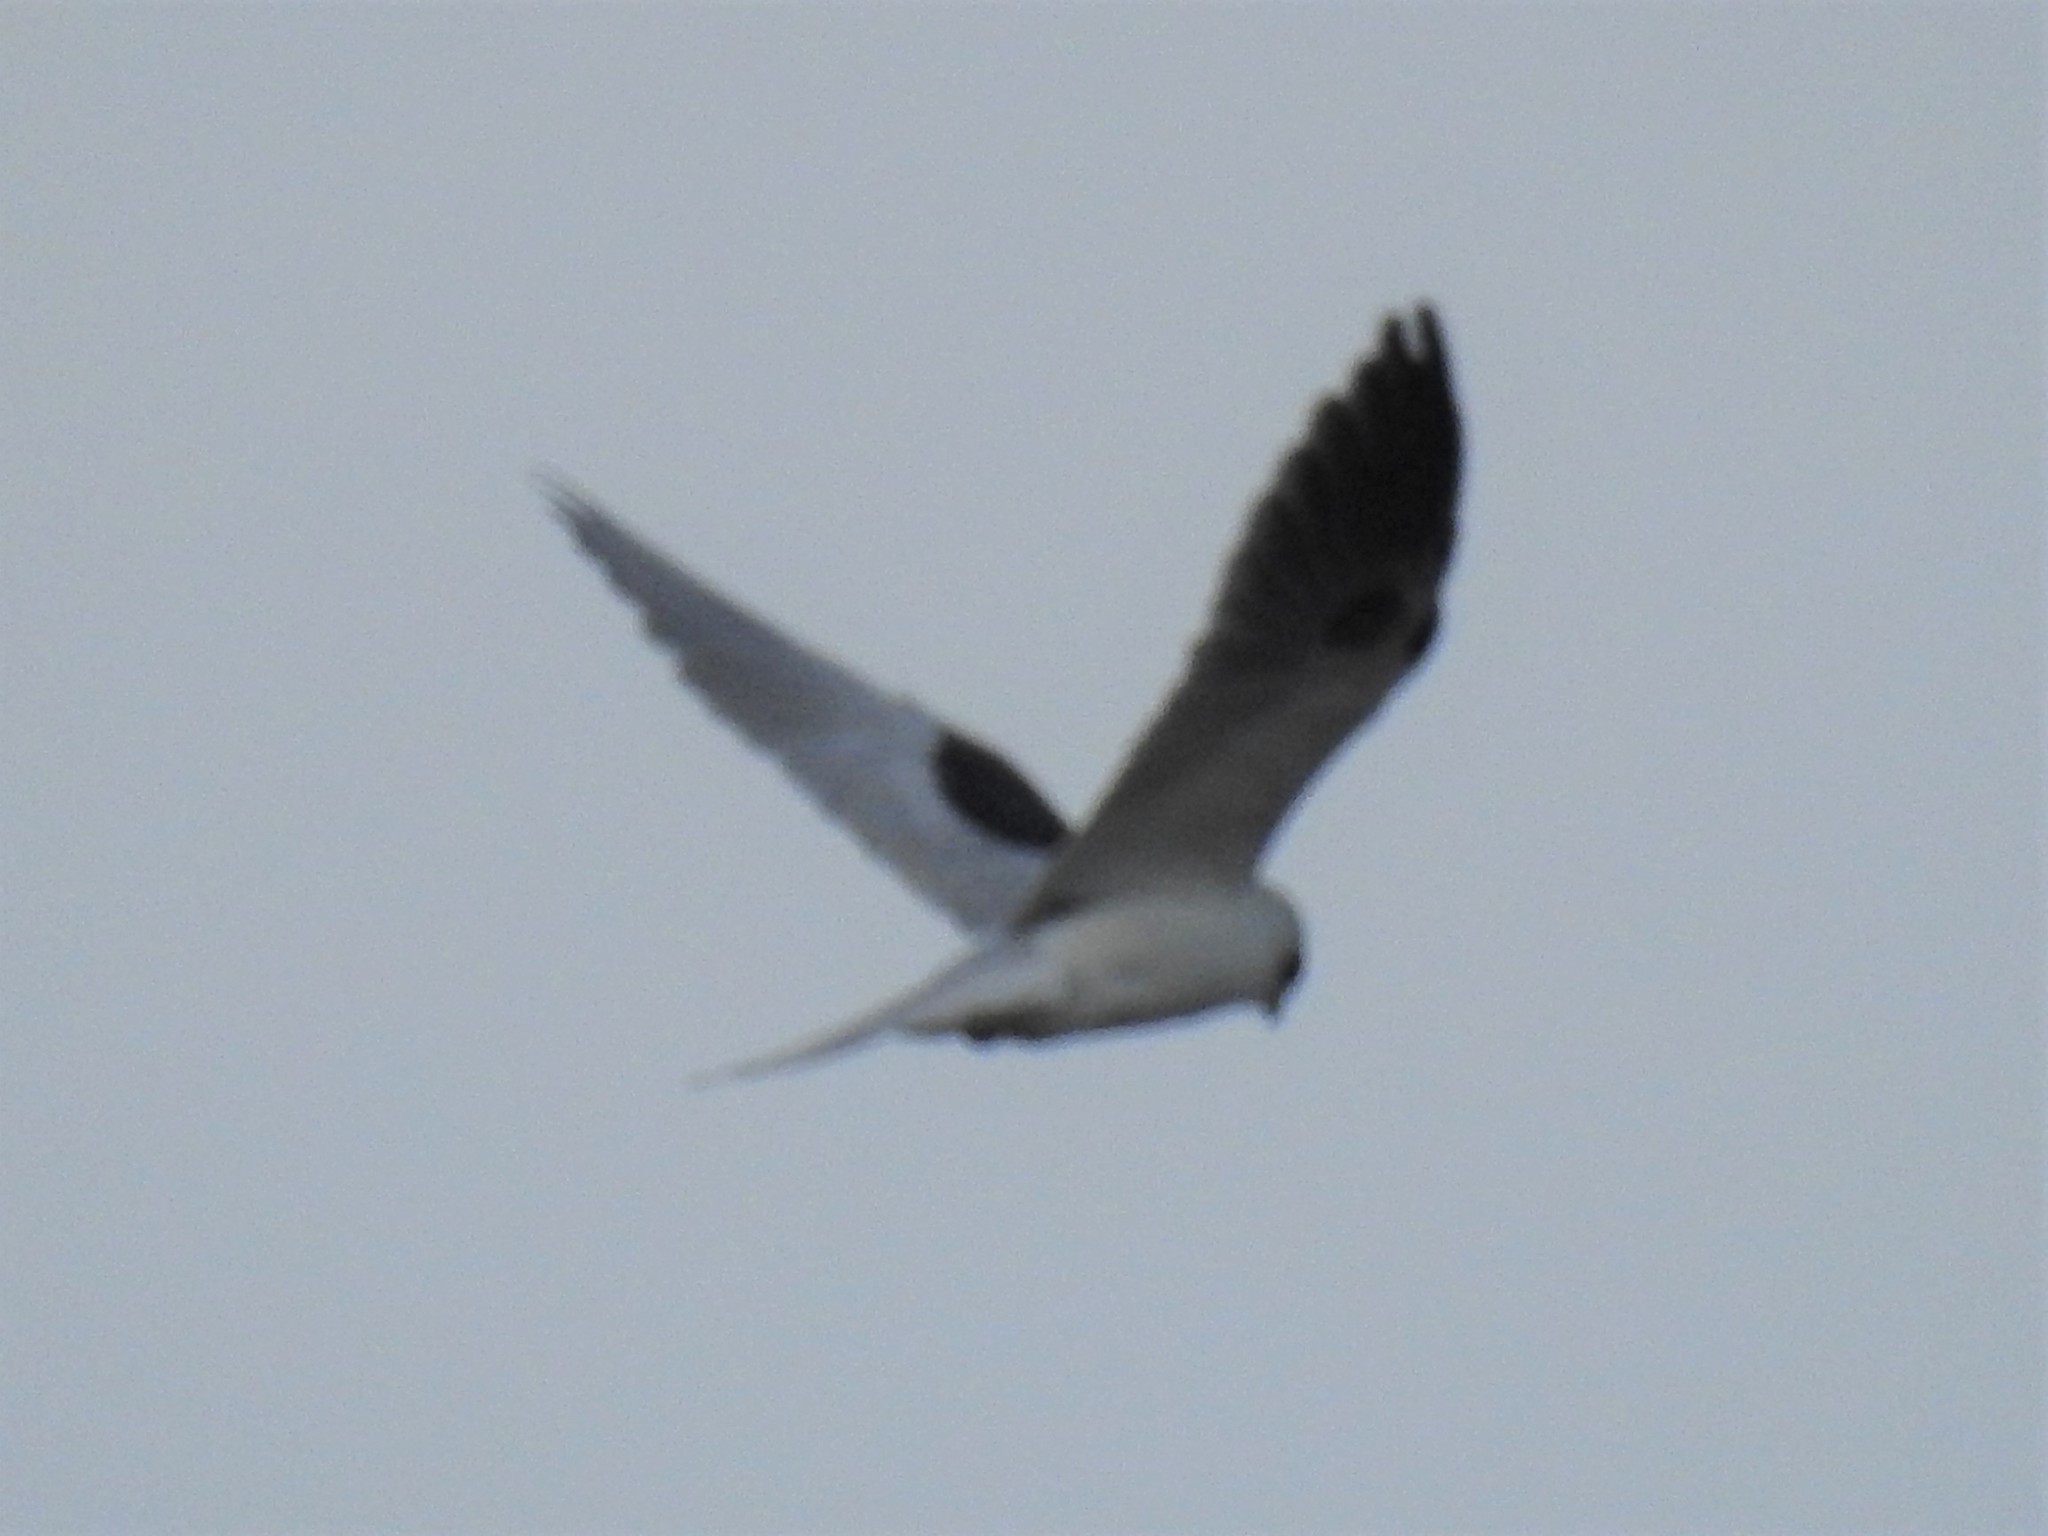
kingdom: Animalia
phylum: Chordata
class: Aves
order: Accipitriformes
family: Accipitridae
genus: Elanus
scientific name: Elanus leucurus
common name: White-tailed kite
